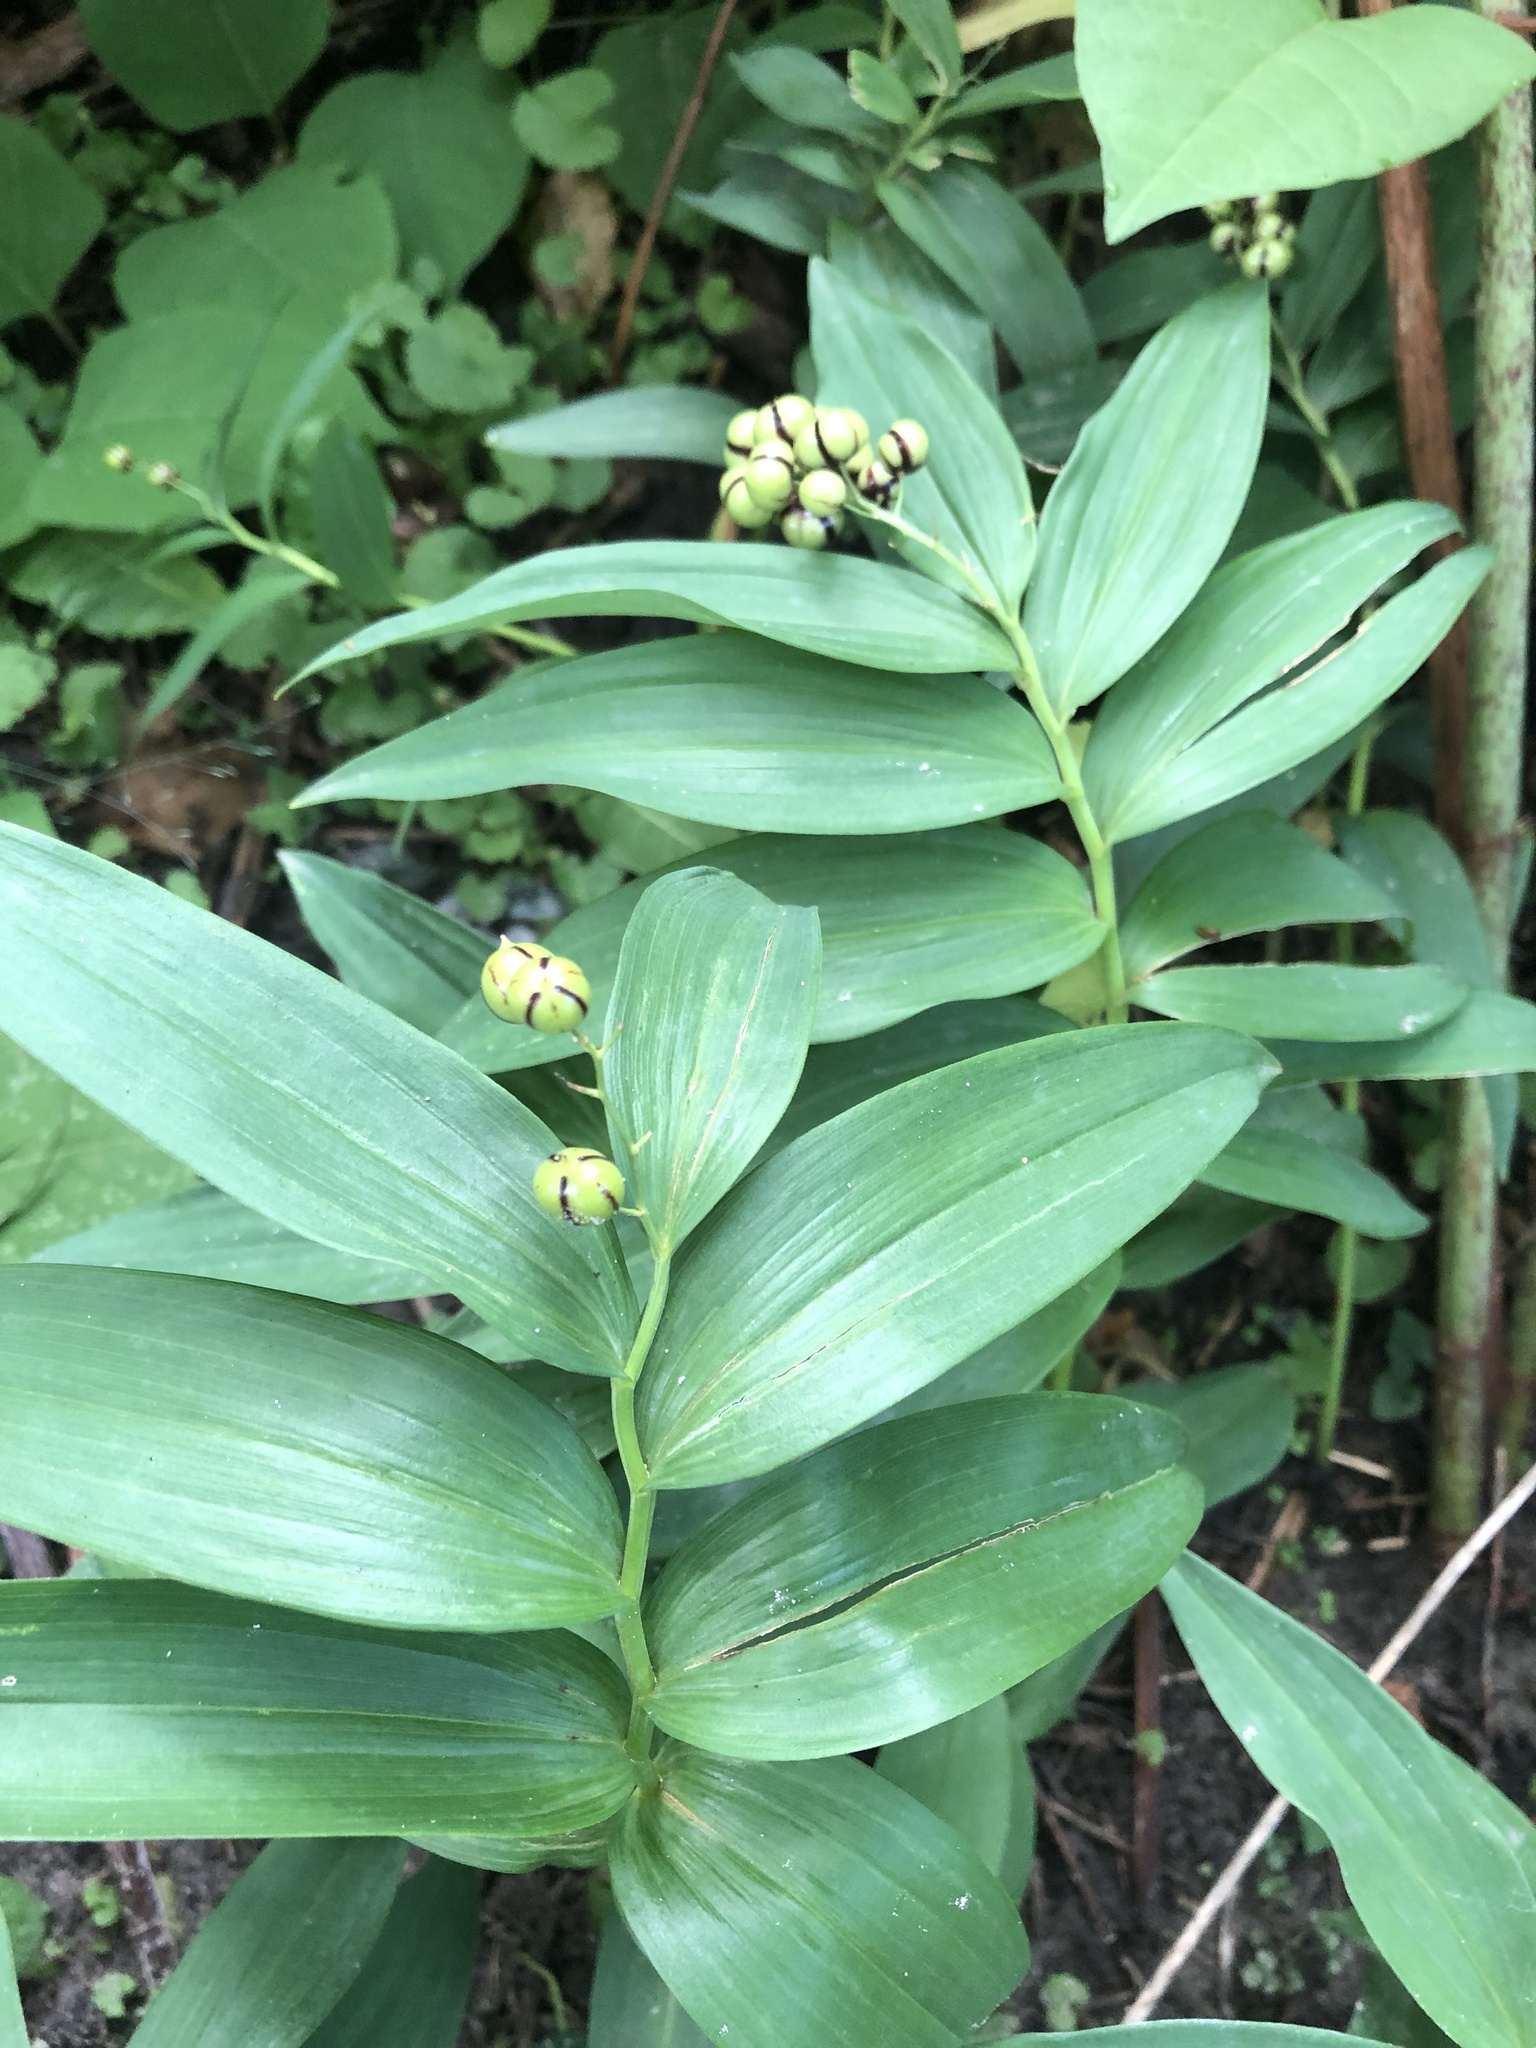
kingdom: Plantae
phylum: Tracheophyta
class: Liliopsida
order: Asparagales
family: Asparagaceae
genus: Maianthemum
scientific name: Maianthemum stellatum
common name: Little false solomon's seal
